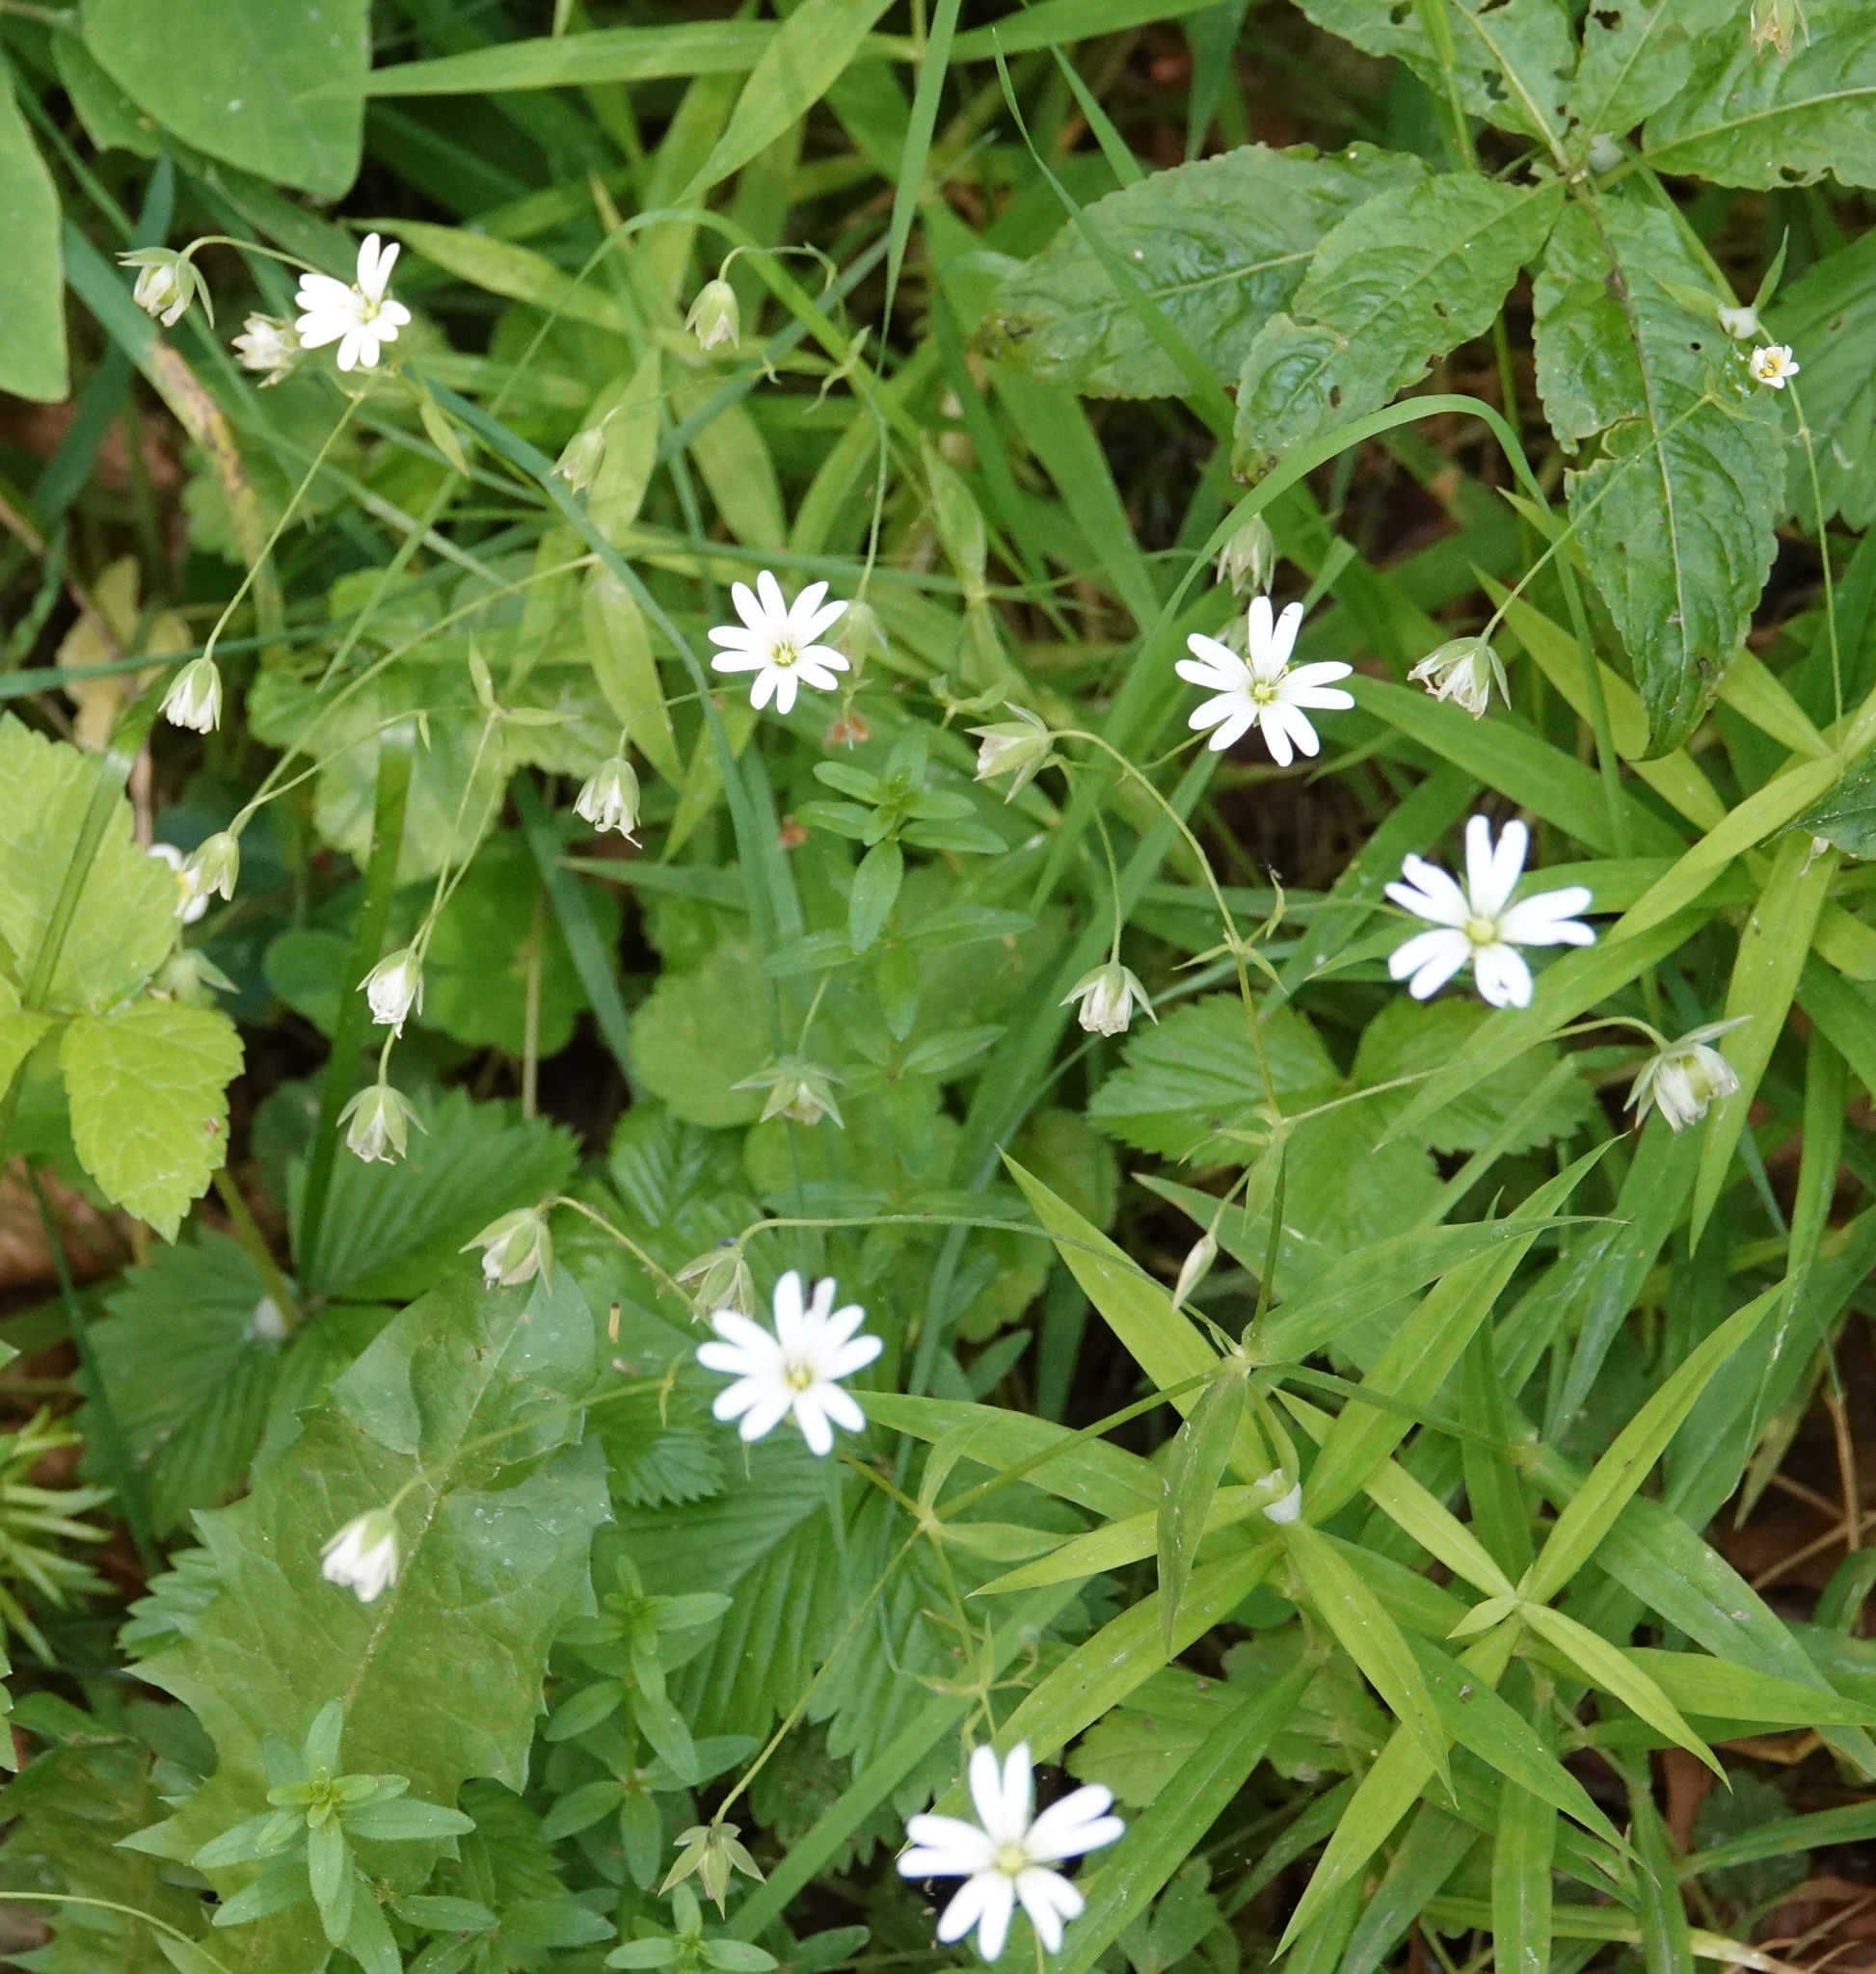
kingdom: Plantae
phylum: Tracheophyta
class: Magnoliopsida
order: Caryophyllales
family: Caryophyllaceae
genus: Rabelera
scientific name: Rabelera holostea
